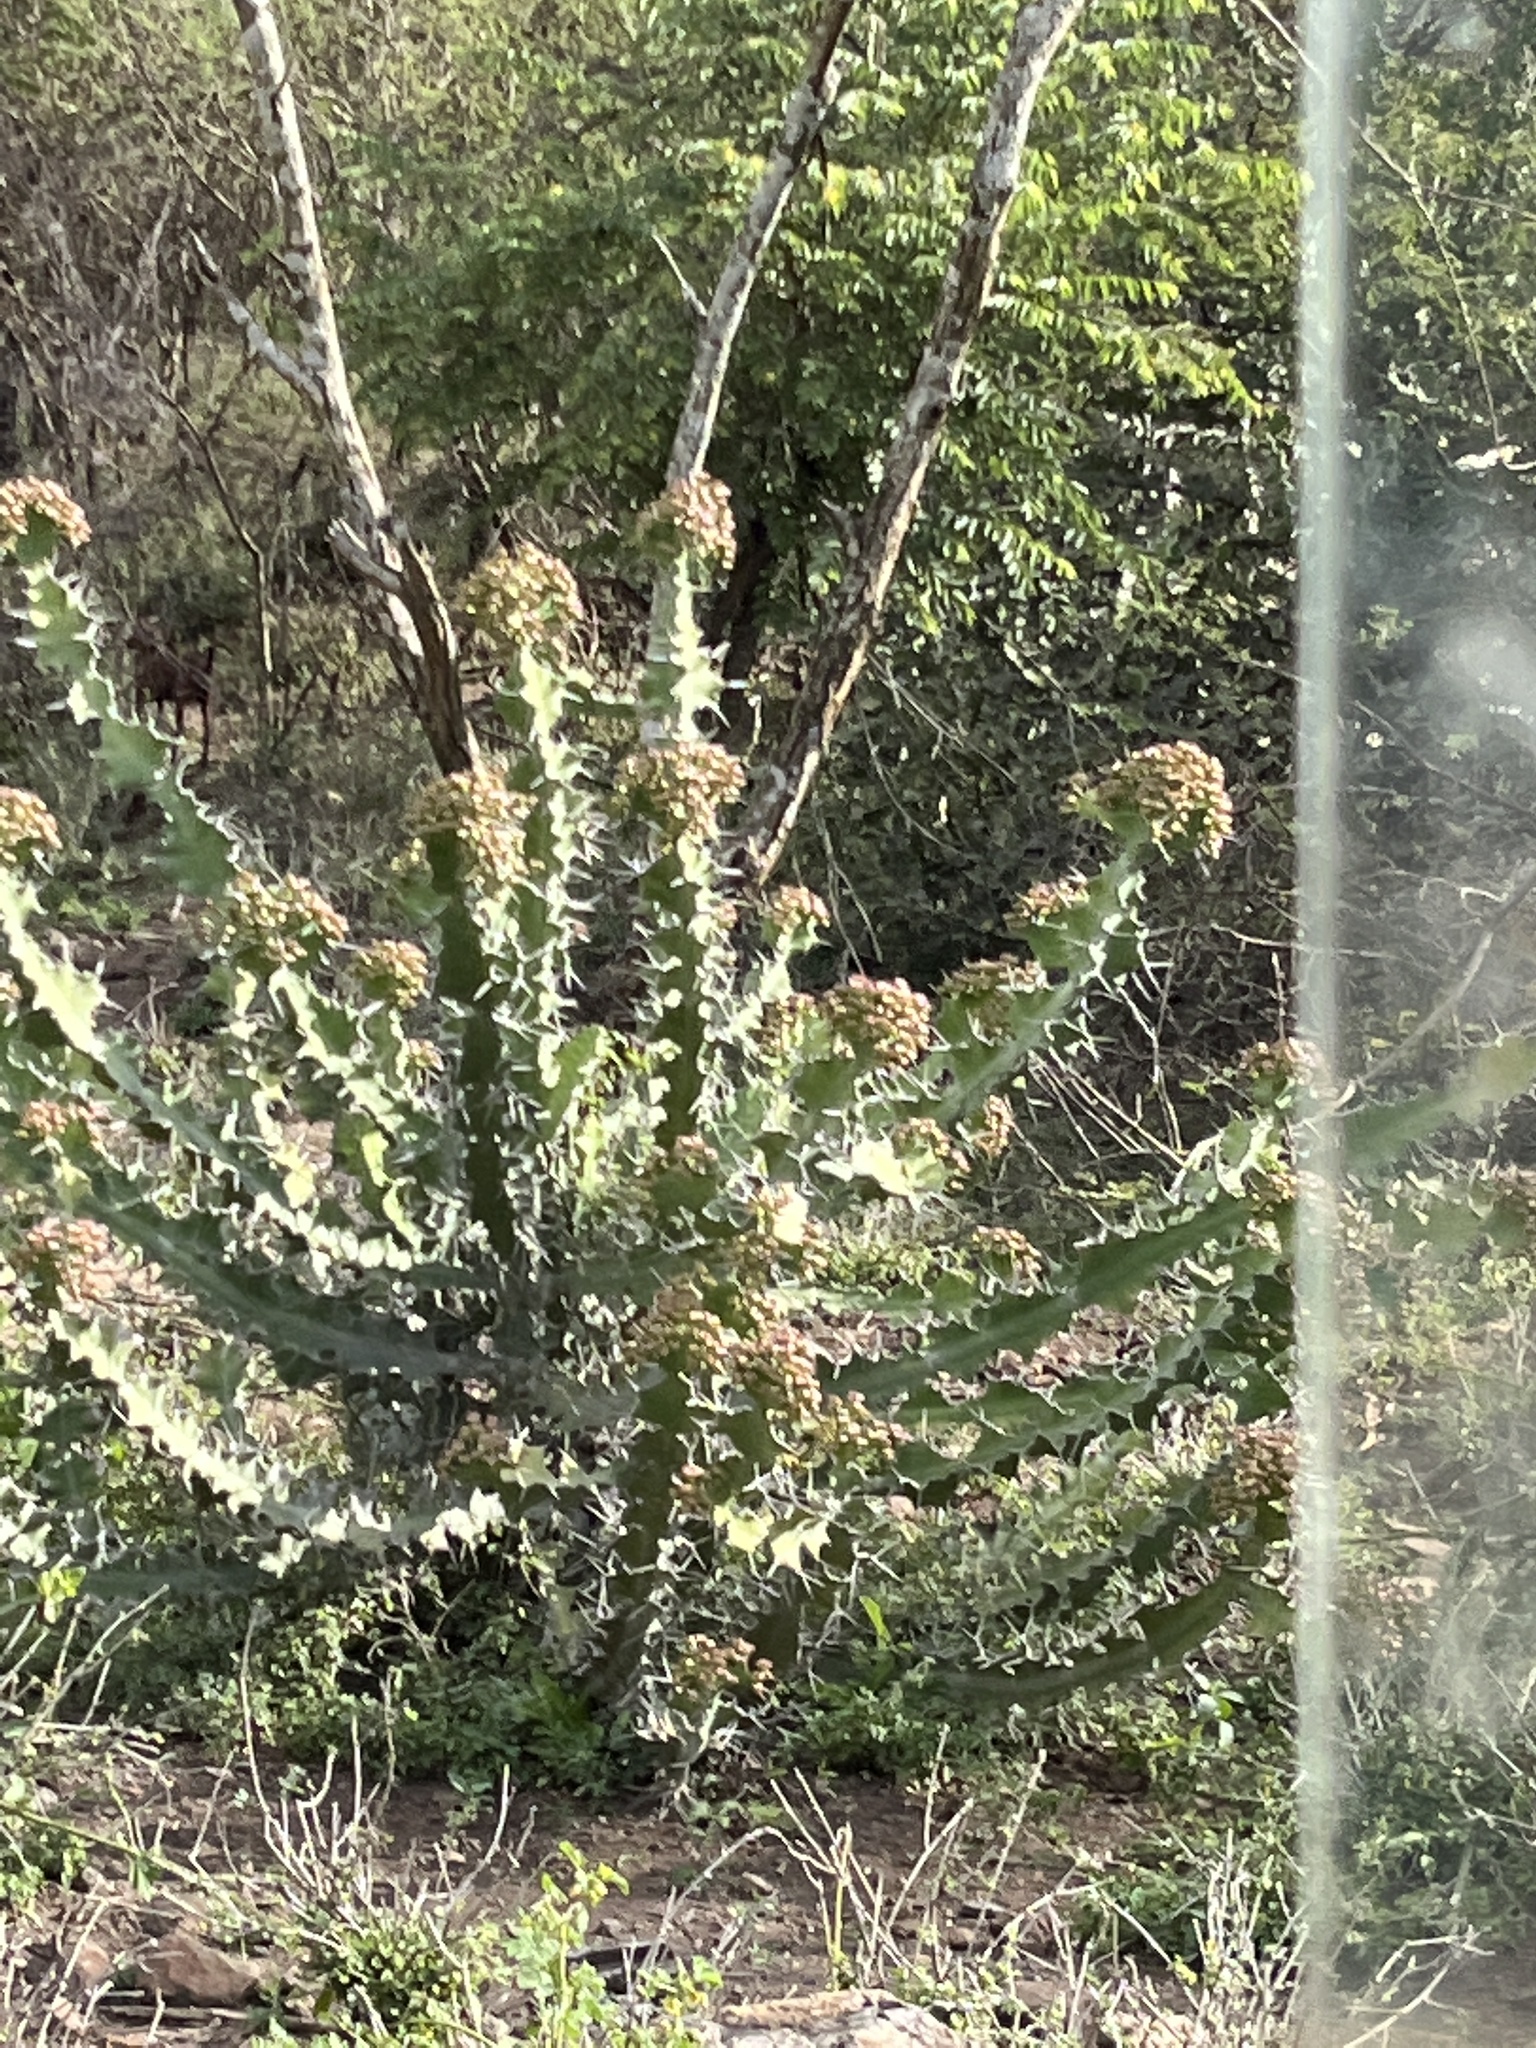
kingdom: Plantae
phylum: Tracheophyta
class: Magnoliopsida
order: Malpighiales
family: Euphorbiaceae
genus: Euphorbia
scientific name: Euphorbia breviarticulata
